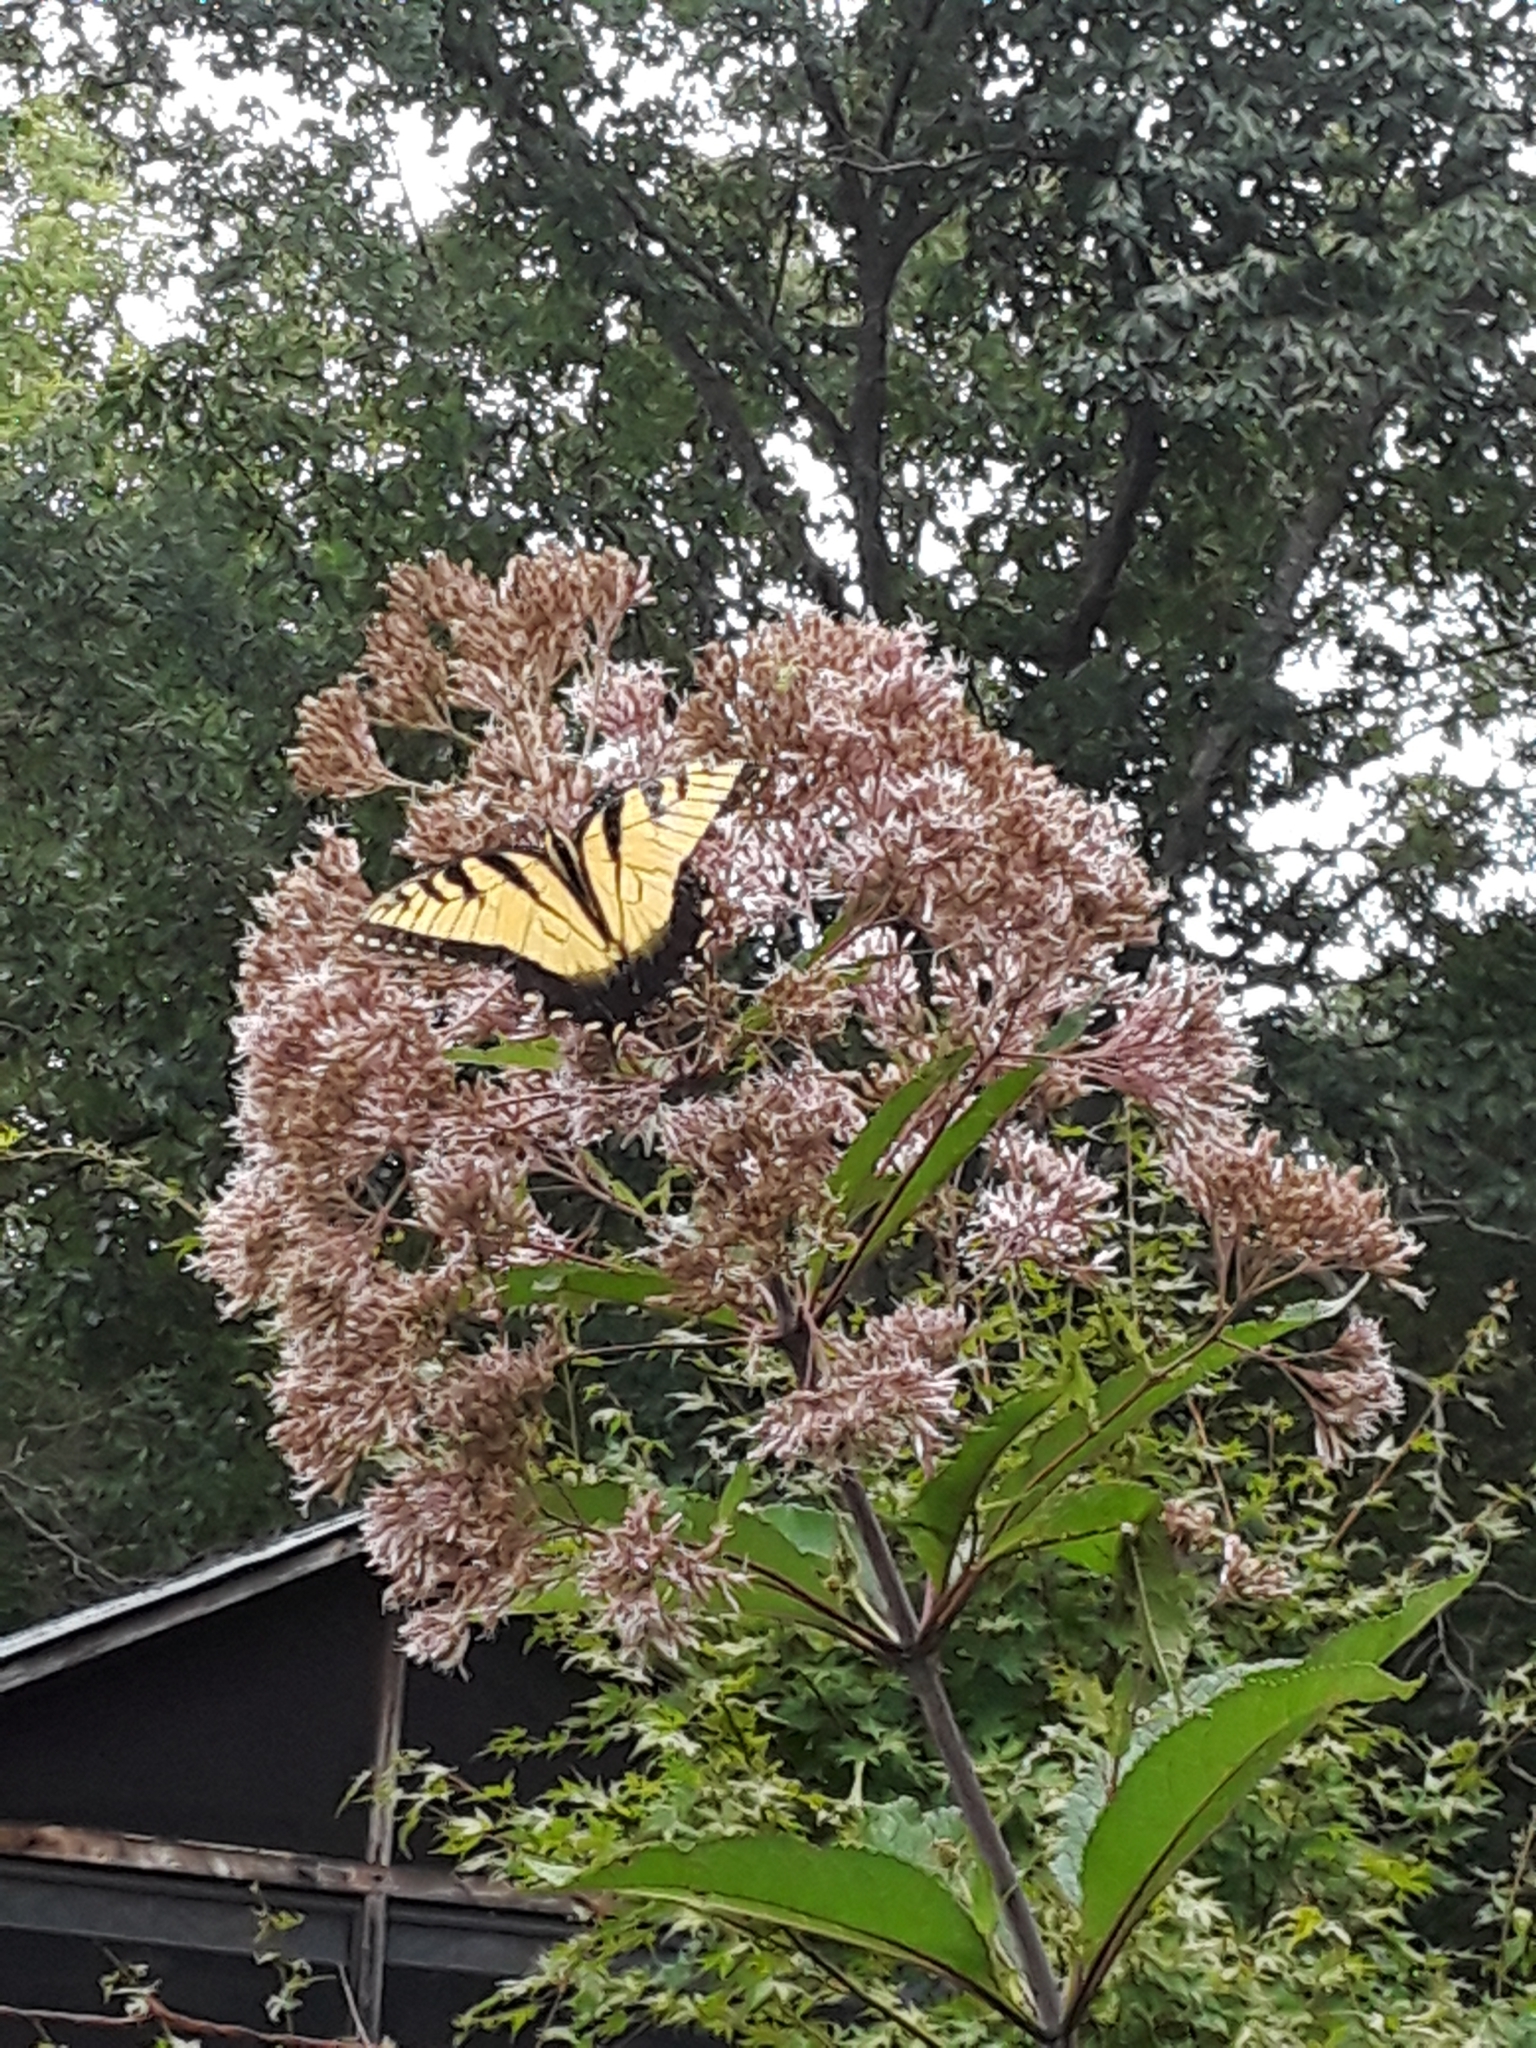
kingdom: Animalia
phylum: Arthropoda
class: Insecta
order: Lepidoptera
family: Papilionidae
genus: Papilio
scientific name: Papilio glaucus
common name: Tiger swallowtail
